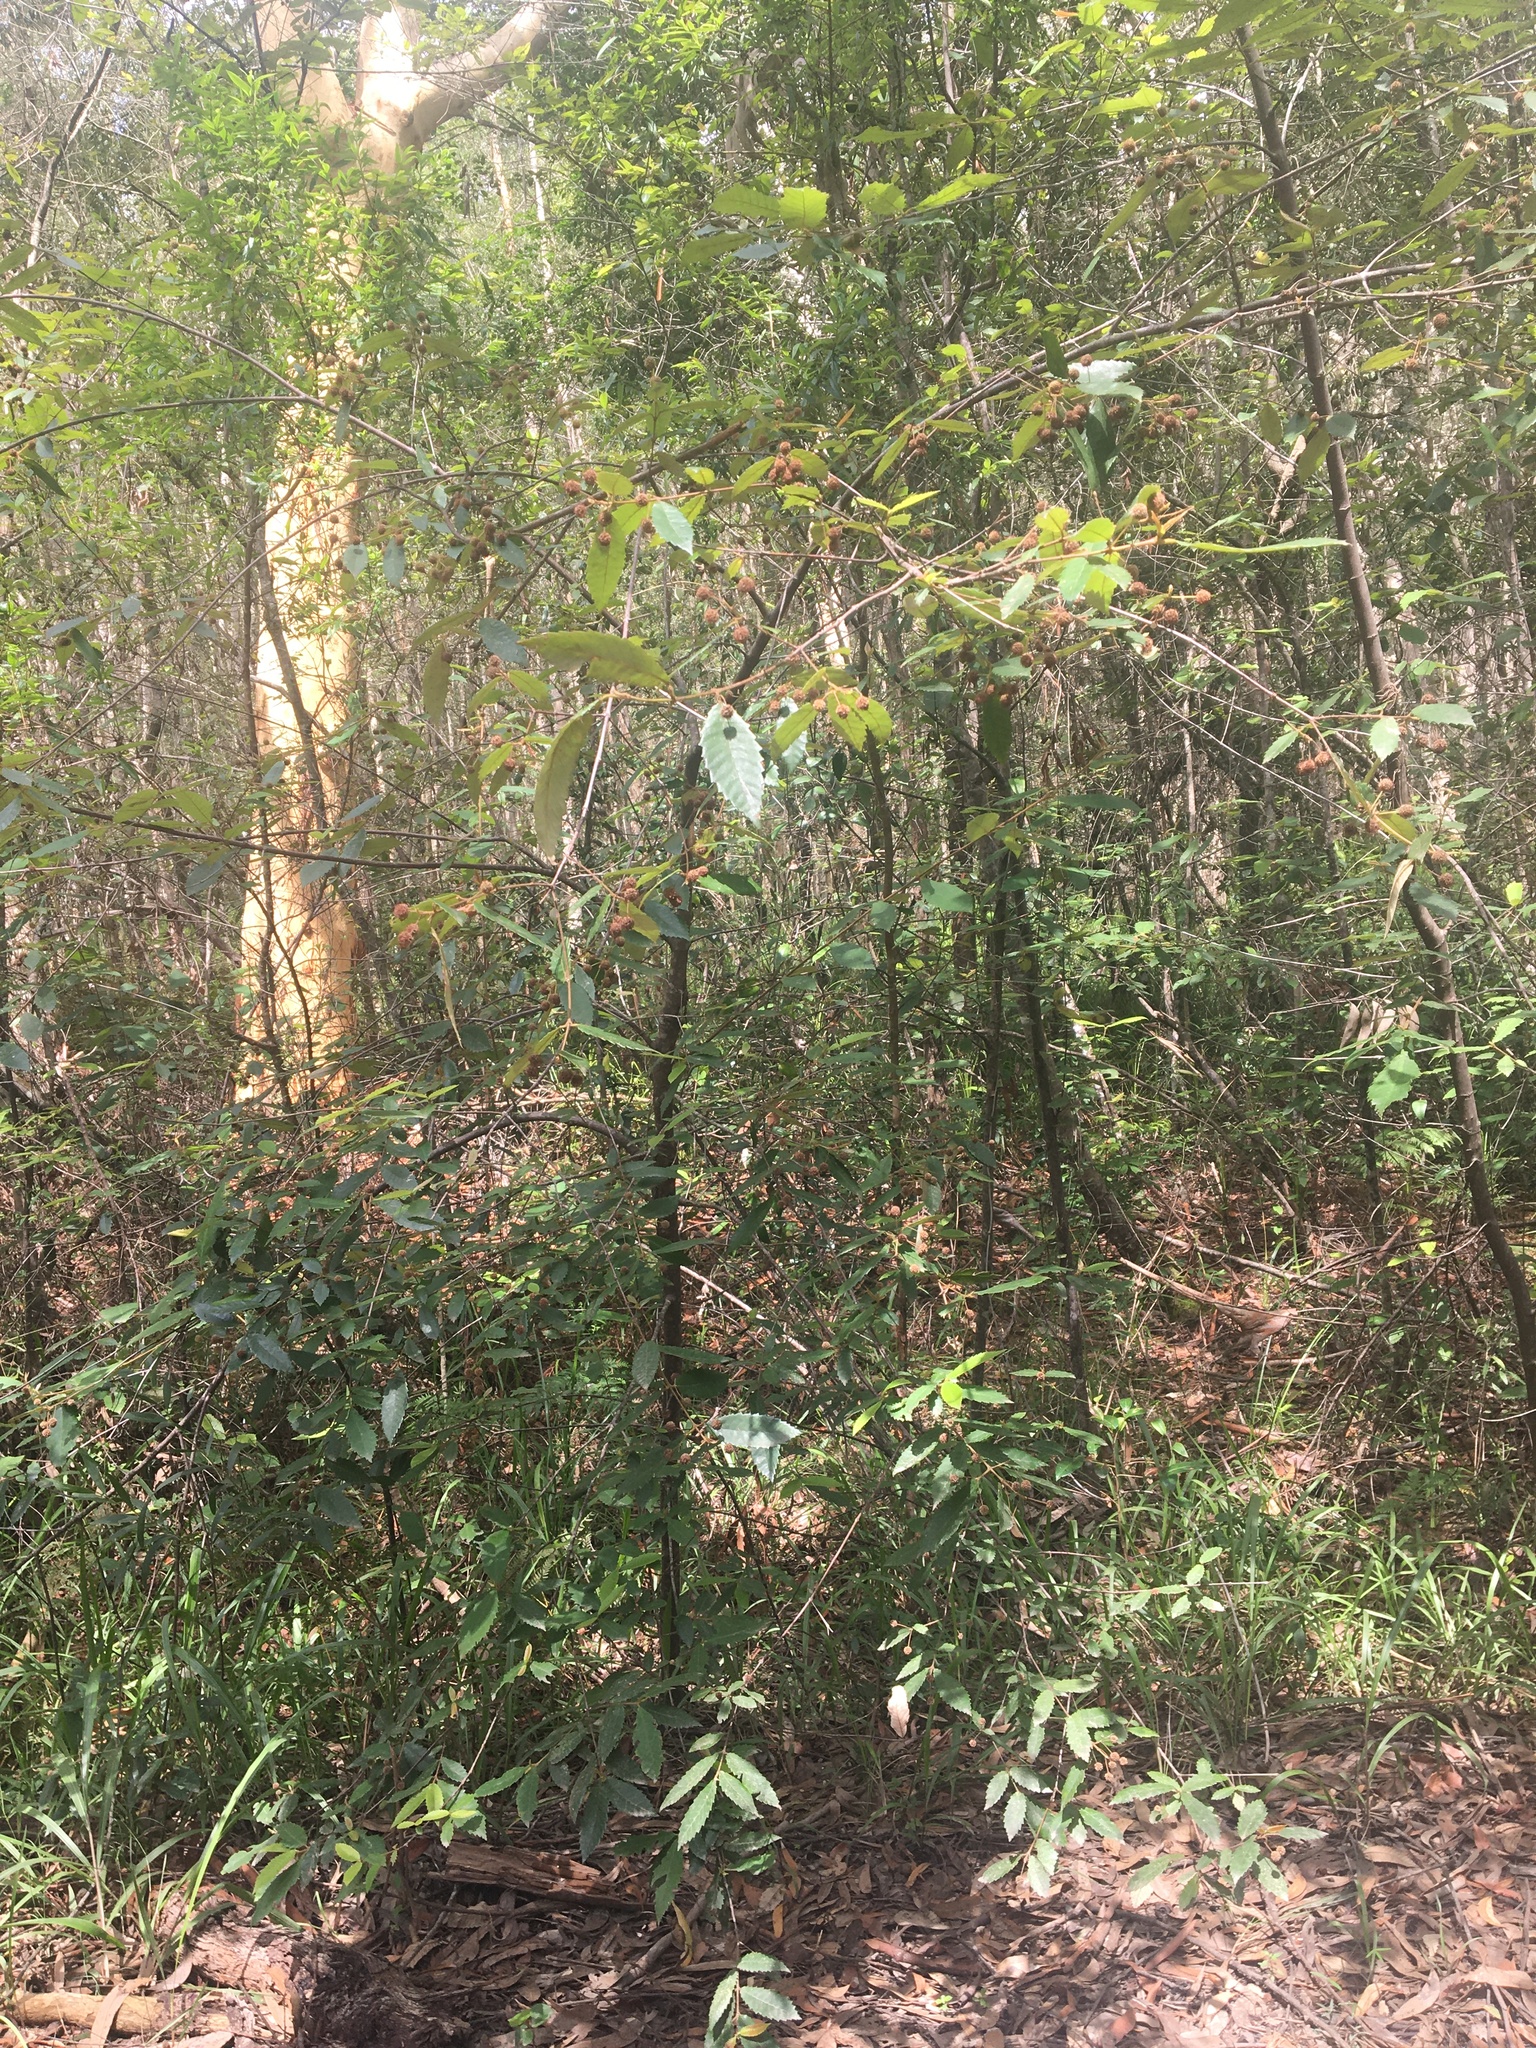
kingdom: Plantae
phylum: Tracheophyta
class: Magnoliopsida
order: Oxalidales
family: Cunoniaceae
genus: Callicoma
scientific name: Callicoma serratifolia
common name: Black wattle
